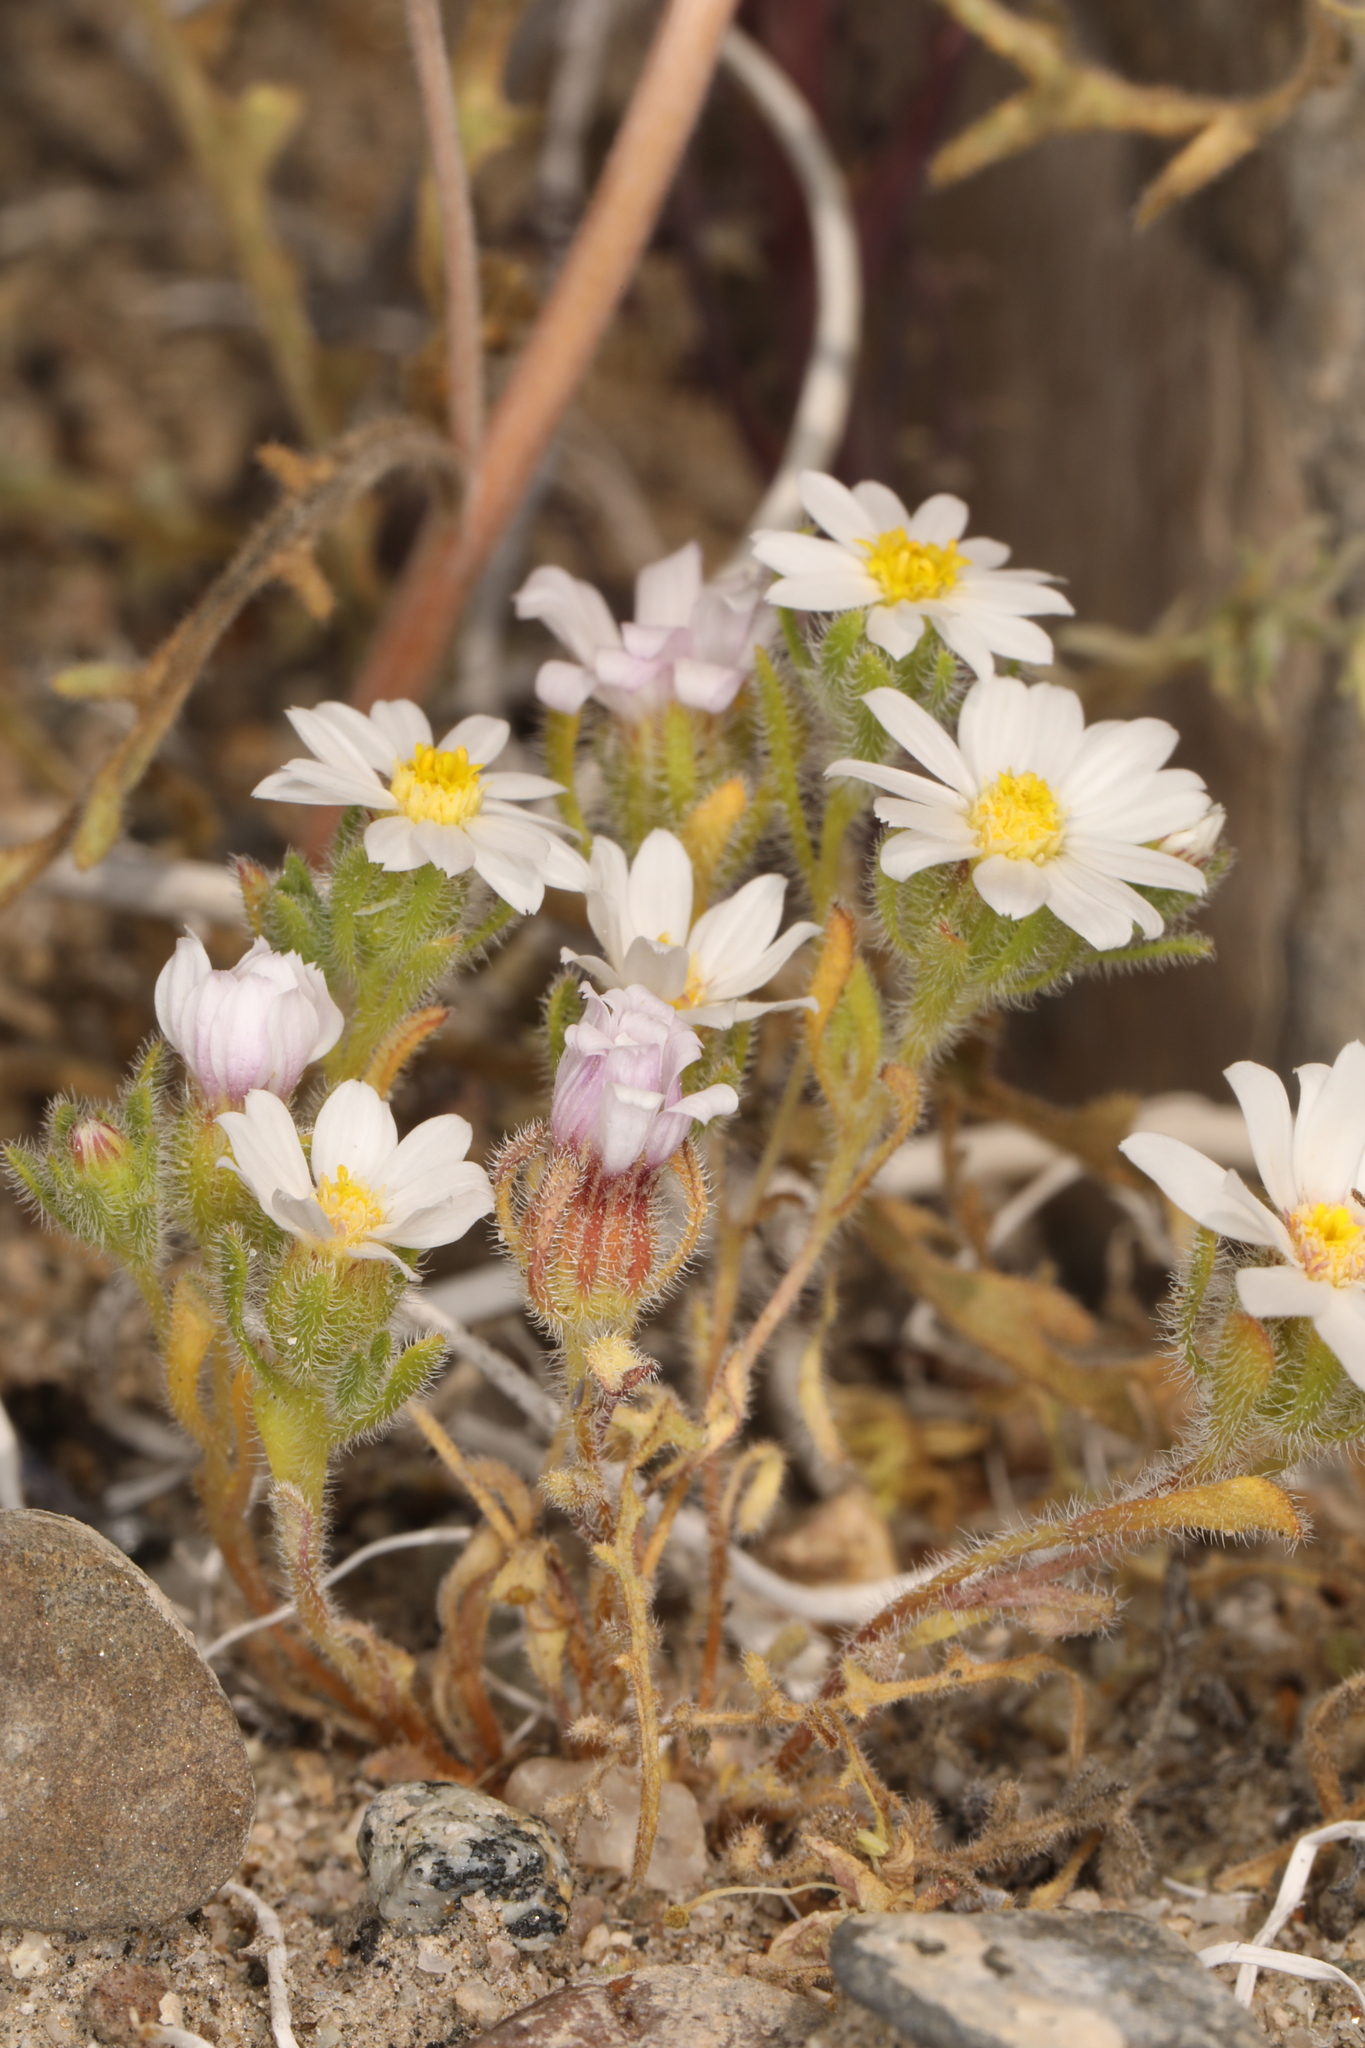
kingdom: Plantae
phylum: Tracheophyta
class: Magnoliopsida
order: Asterales
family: Asteraceae
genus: Monoptilon
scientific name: Monoptilon bellioides
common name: Bristly desertstar
